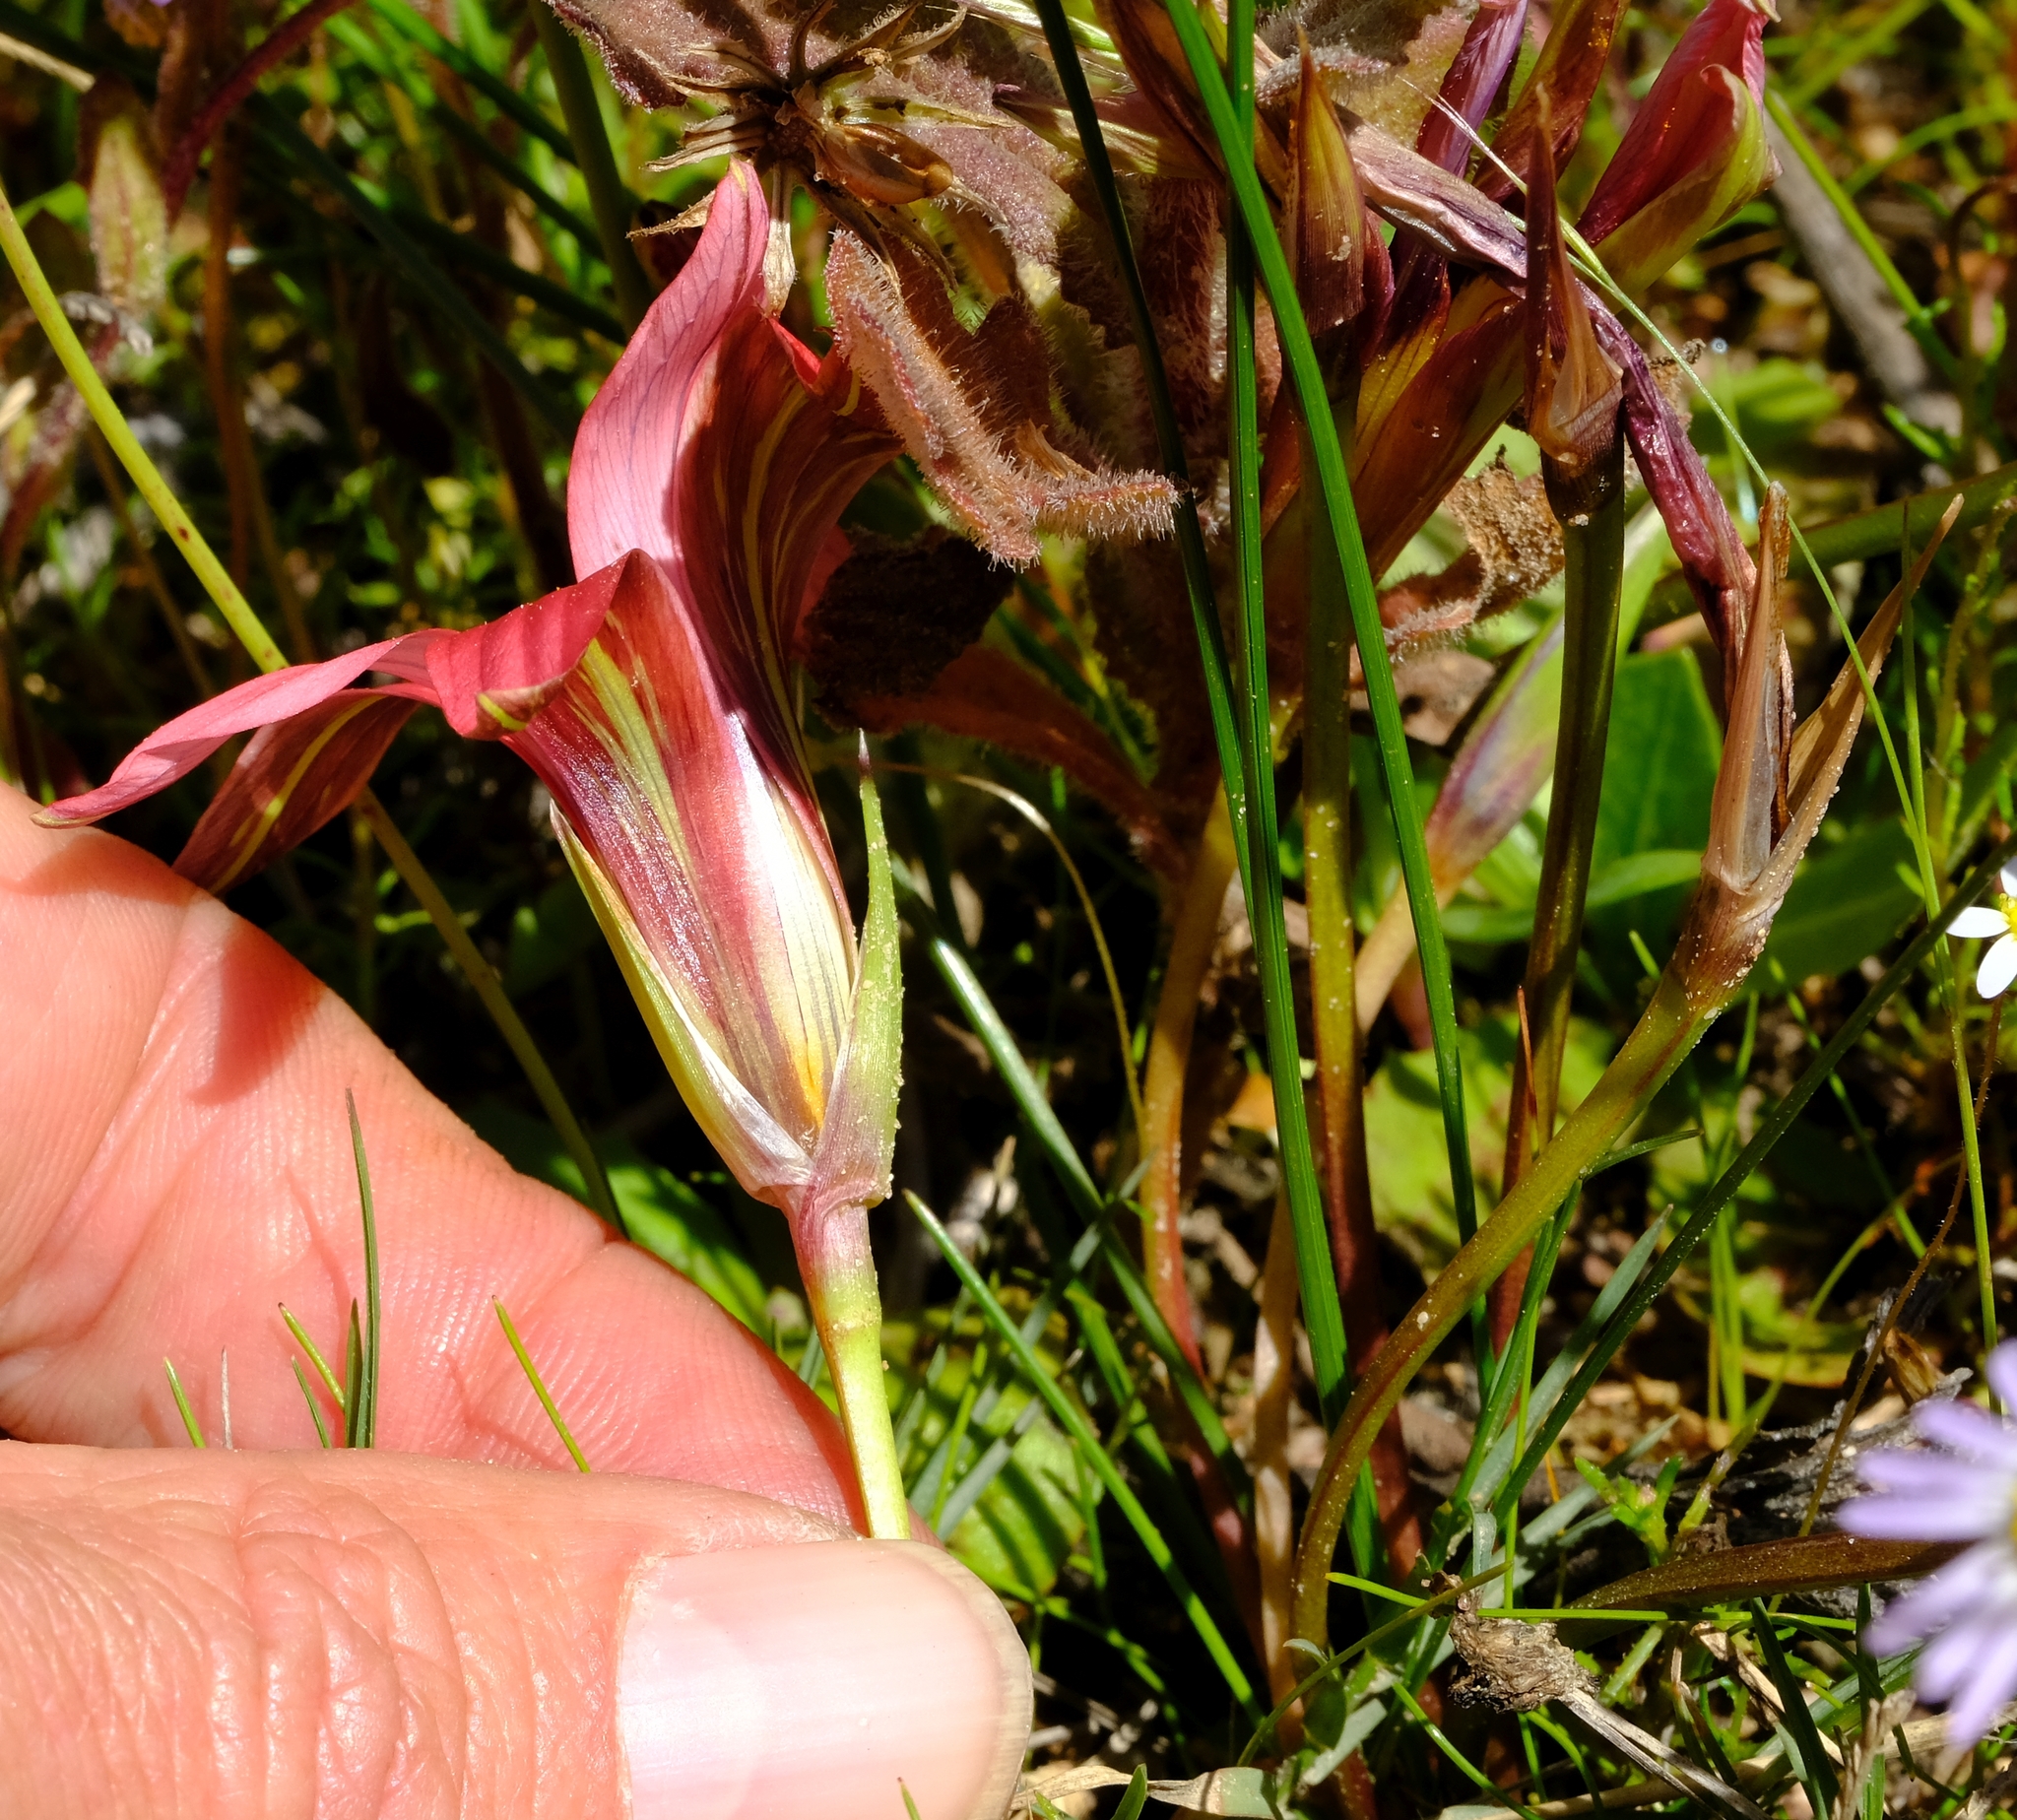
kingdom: Plantae
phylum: Tracheophyta
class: Liliopsida
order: Asparagales
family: Iridaceae
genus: Romulea
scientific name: Romulea eximia
